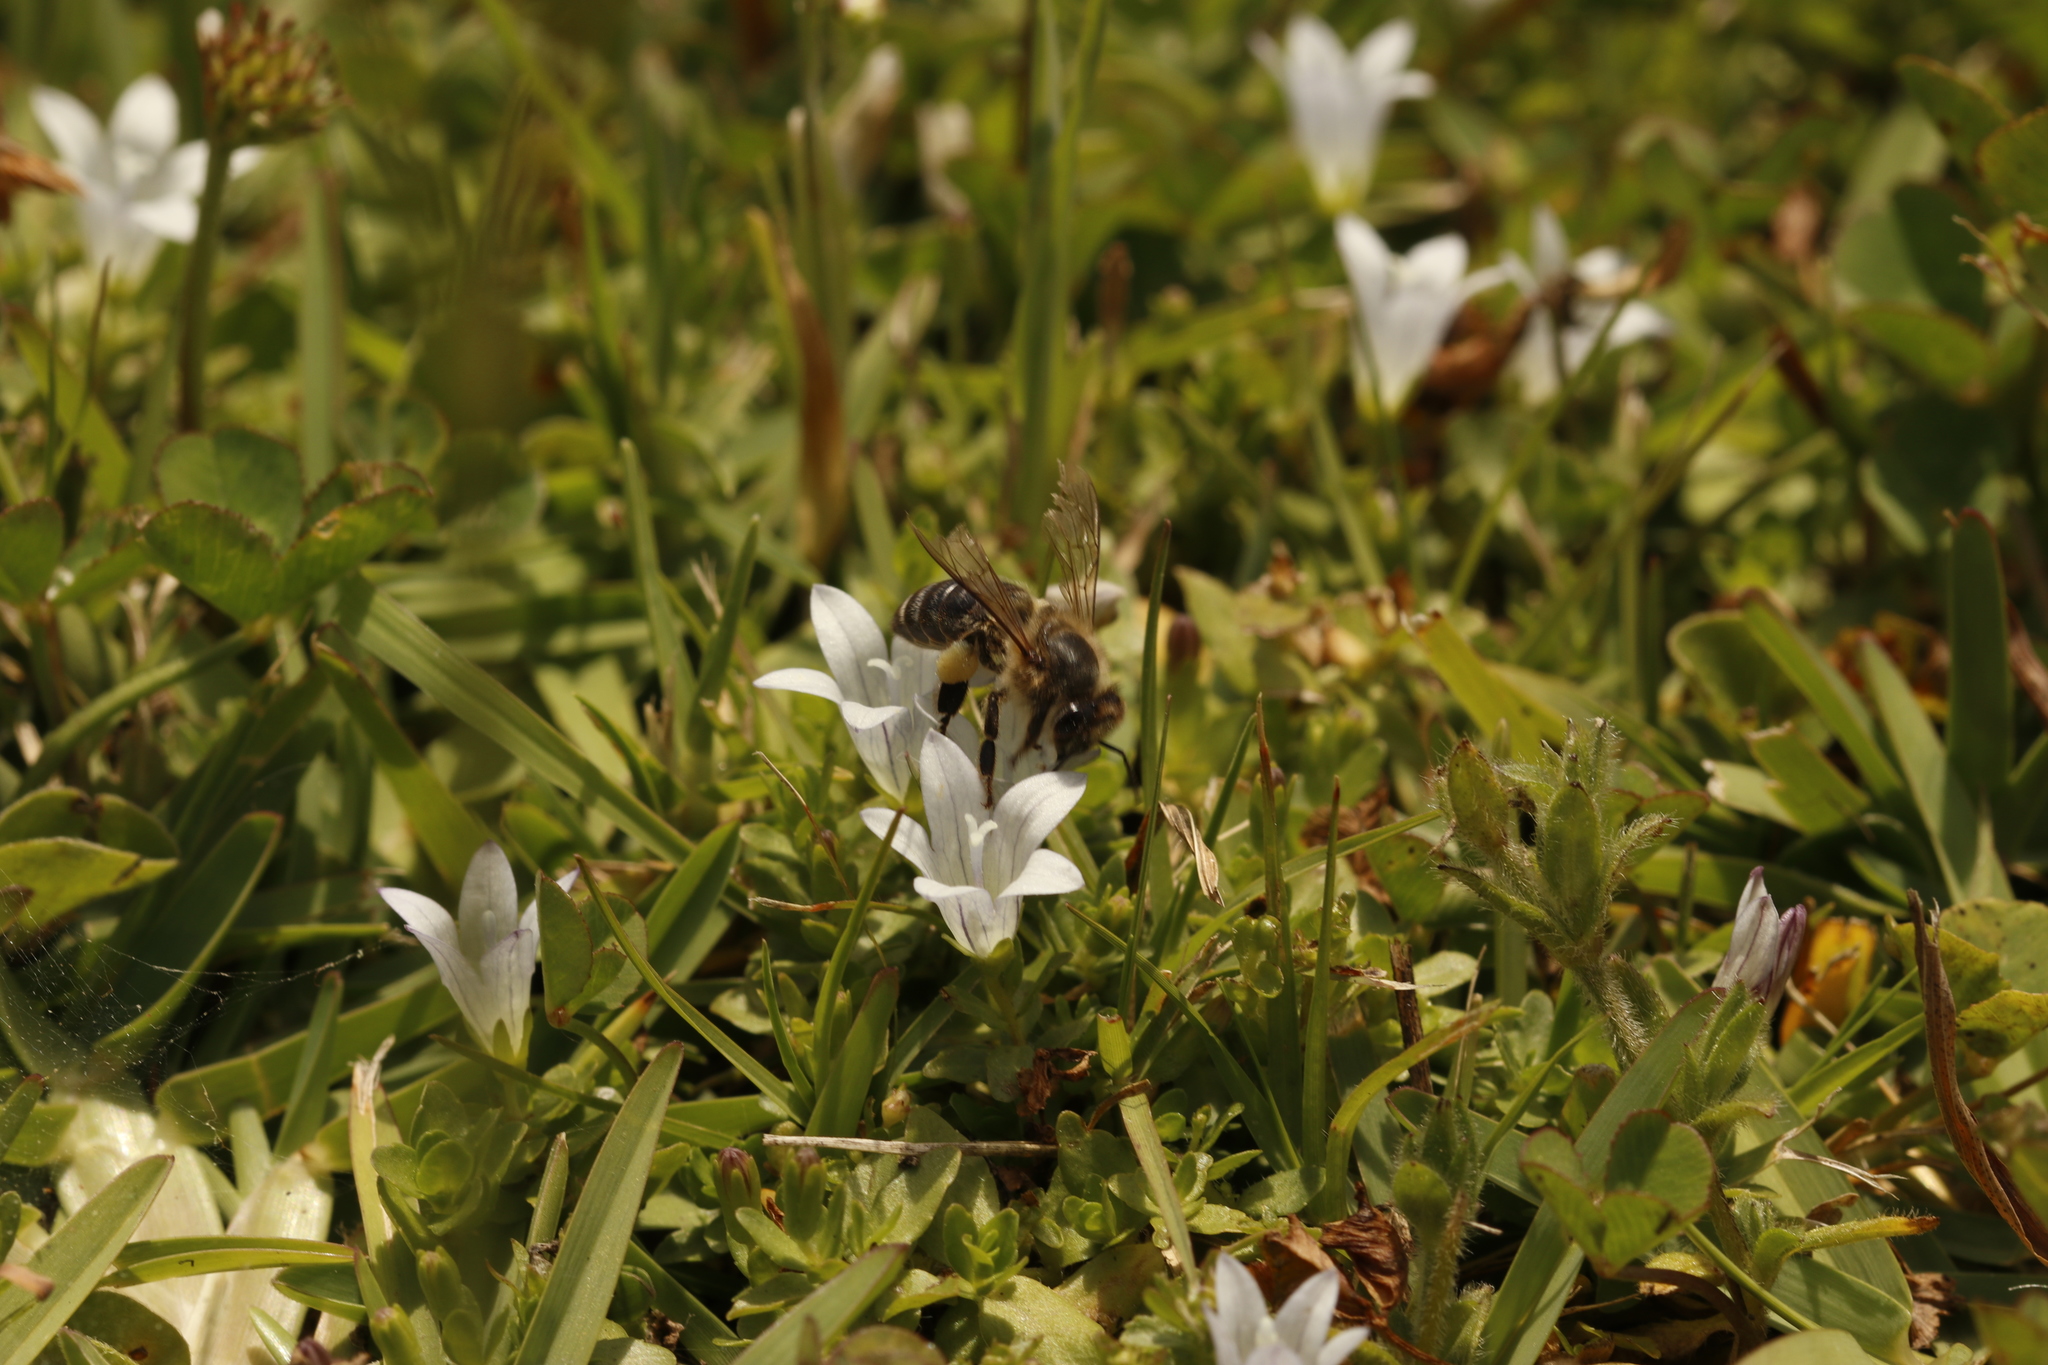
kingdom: Animalia
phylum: Arthropoda
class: Insecta
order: Hymenoptera
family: Apidae
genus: Apis
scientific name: Apis mellifera
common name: Honey bee
